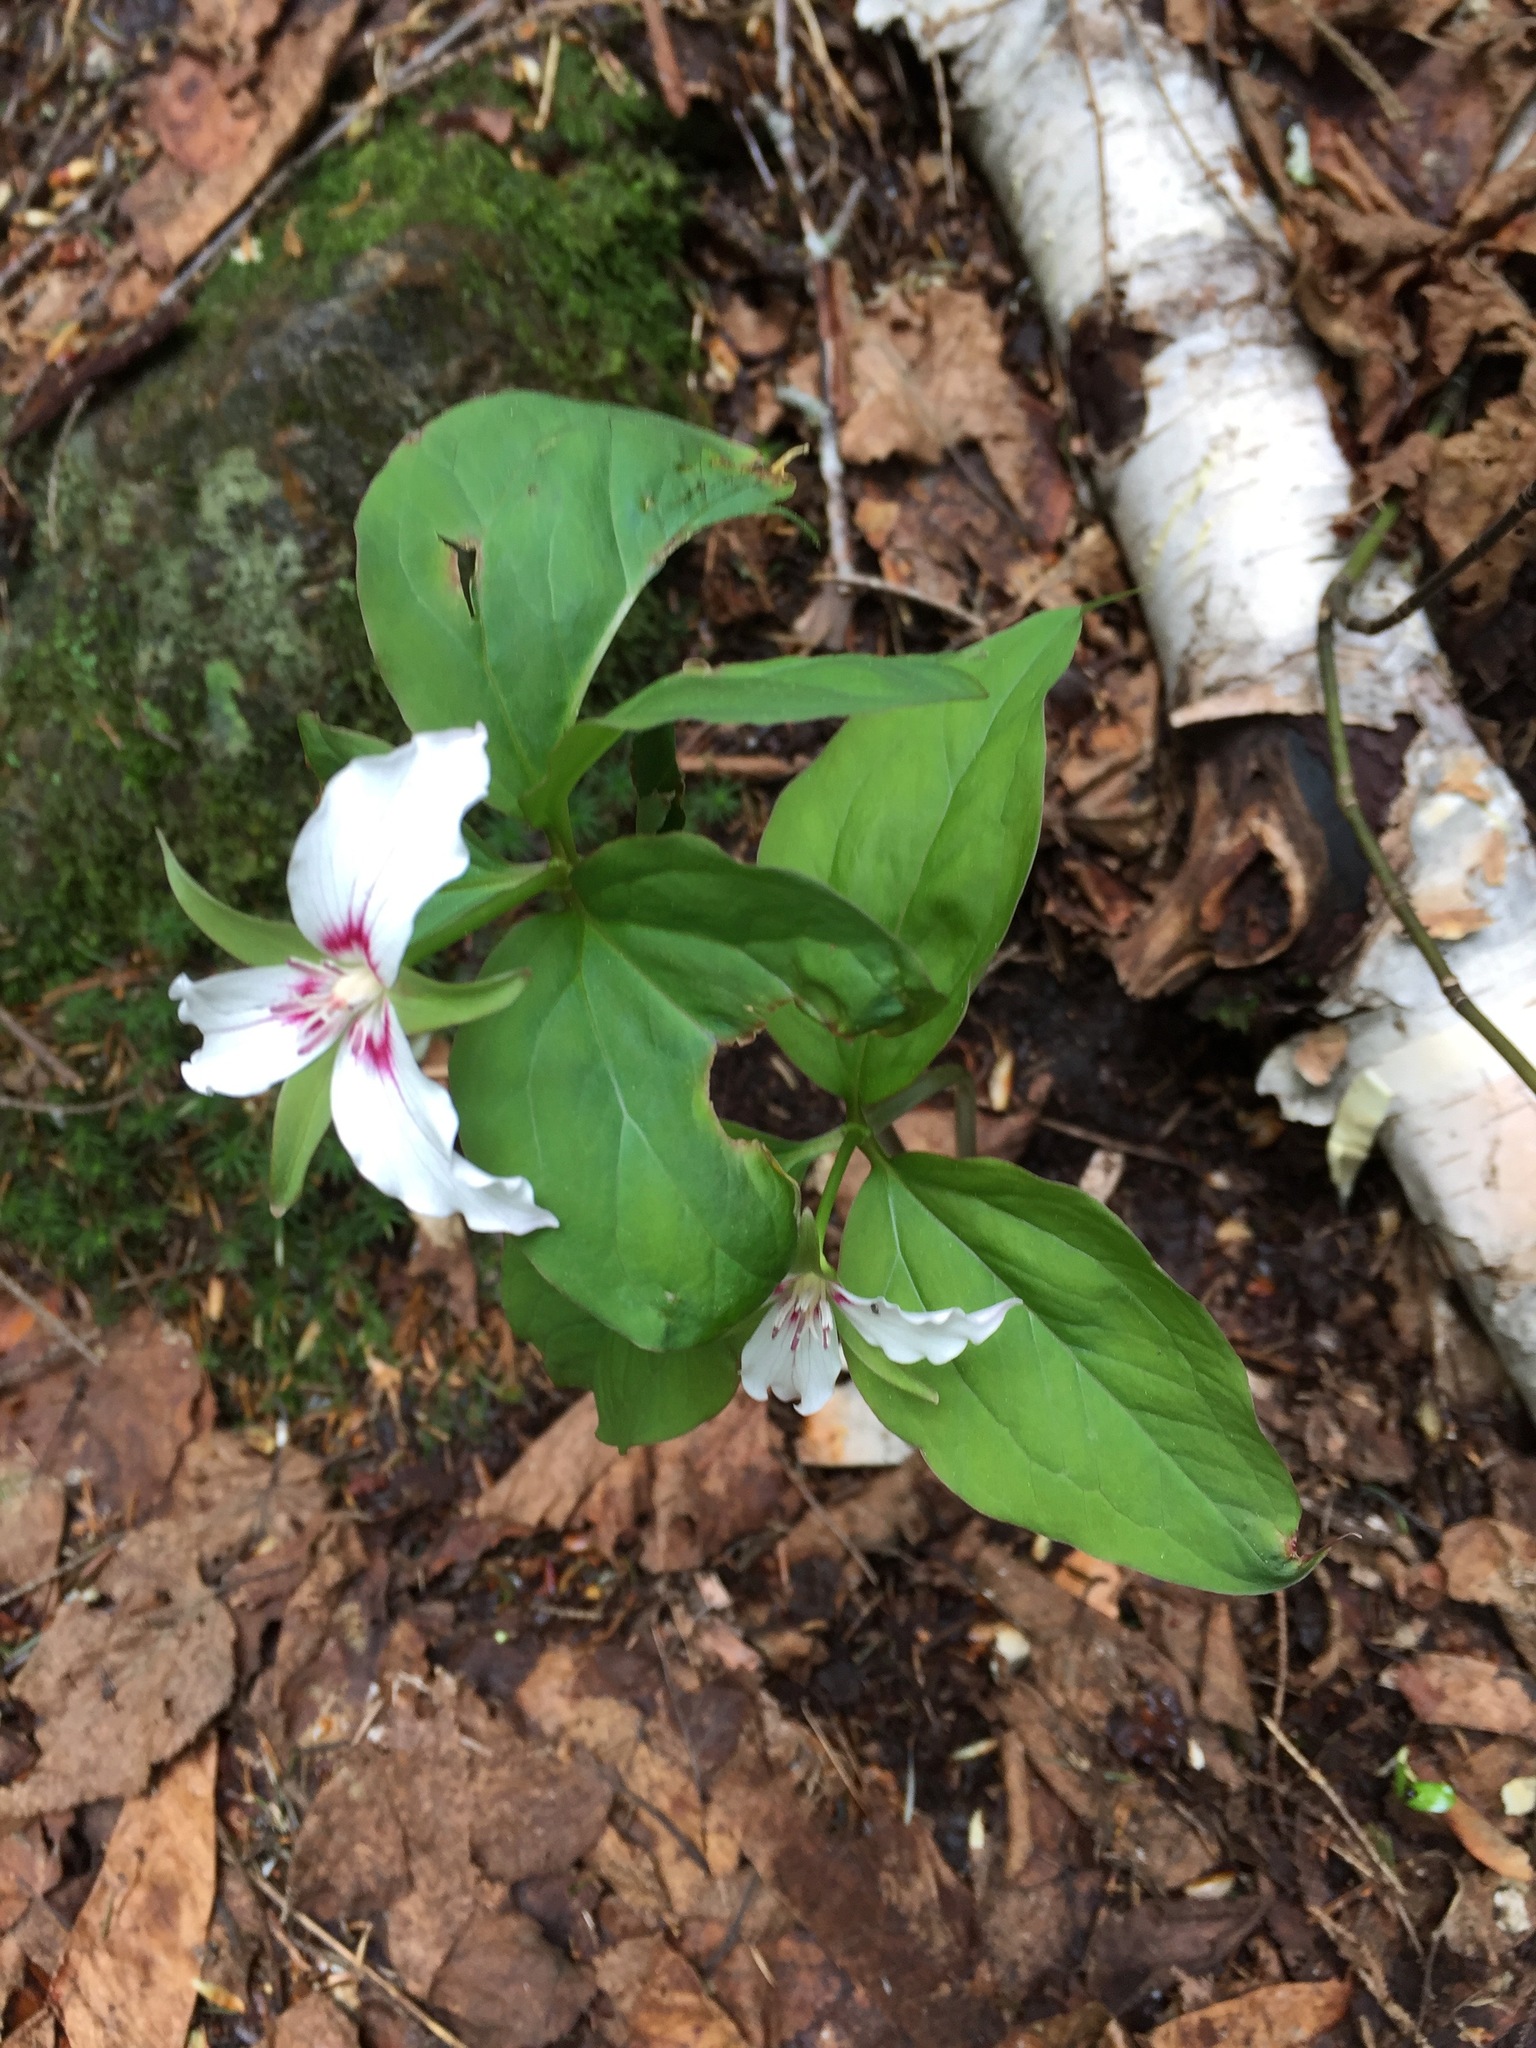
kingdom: Plantae
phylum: Tracheophyta
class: Liliopsida
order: Liliales
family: Melanthiaceae
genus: Trillium
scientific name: Trillium undulatum
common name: Paint trillium
